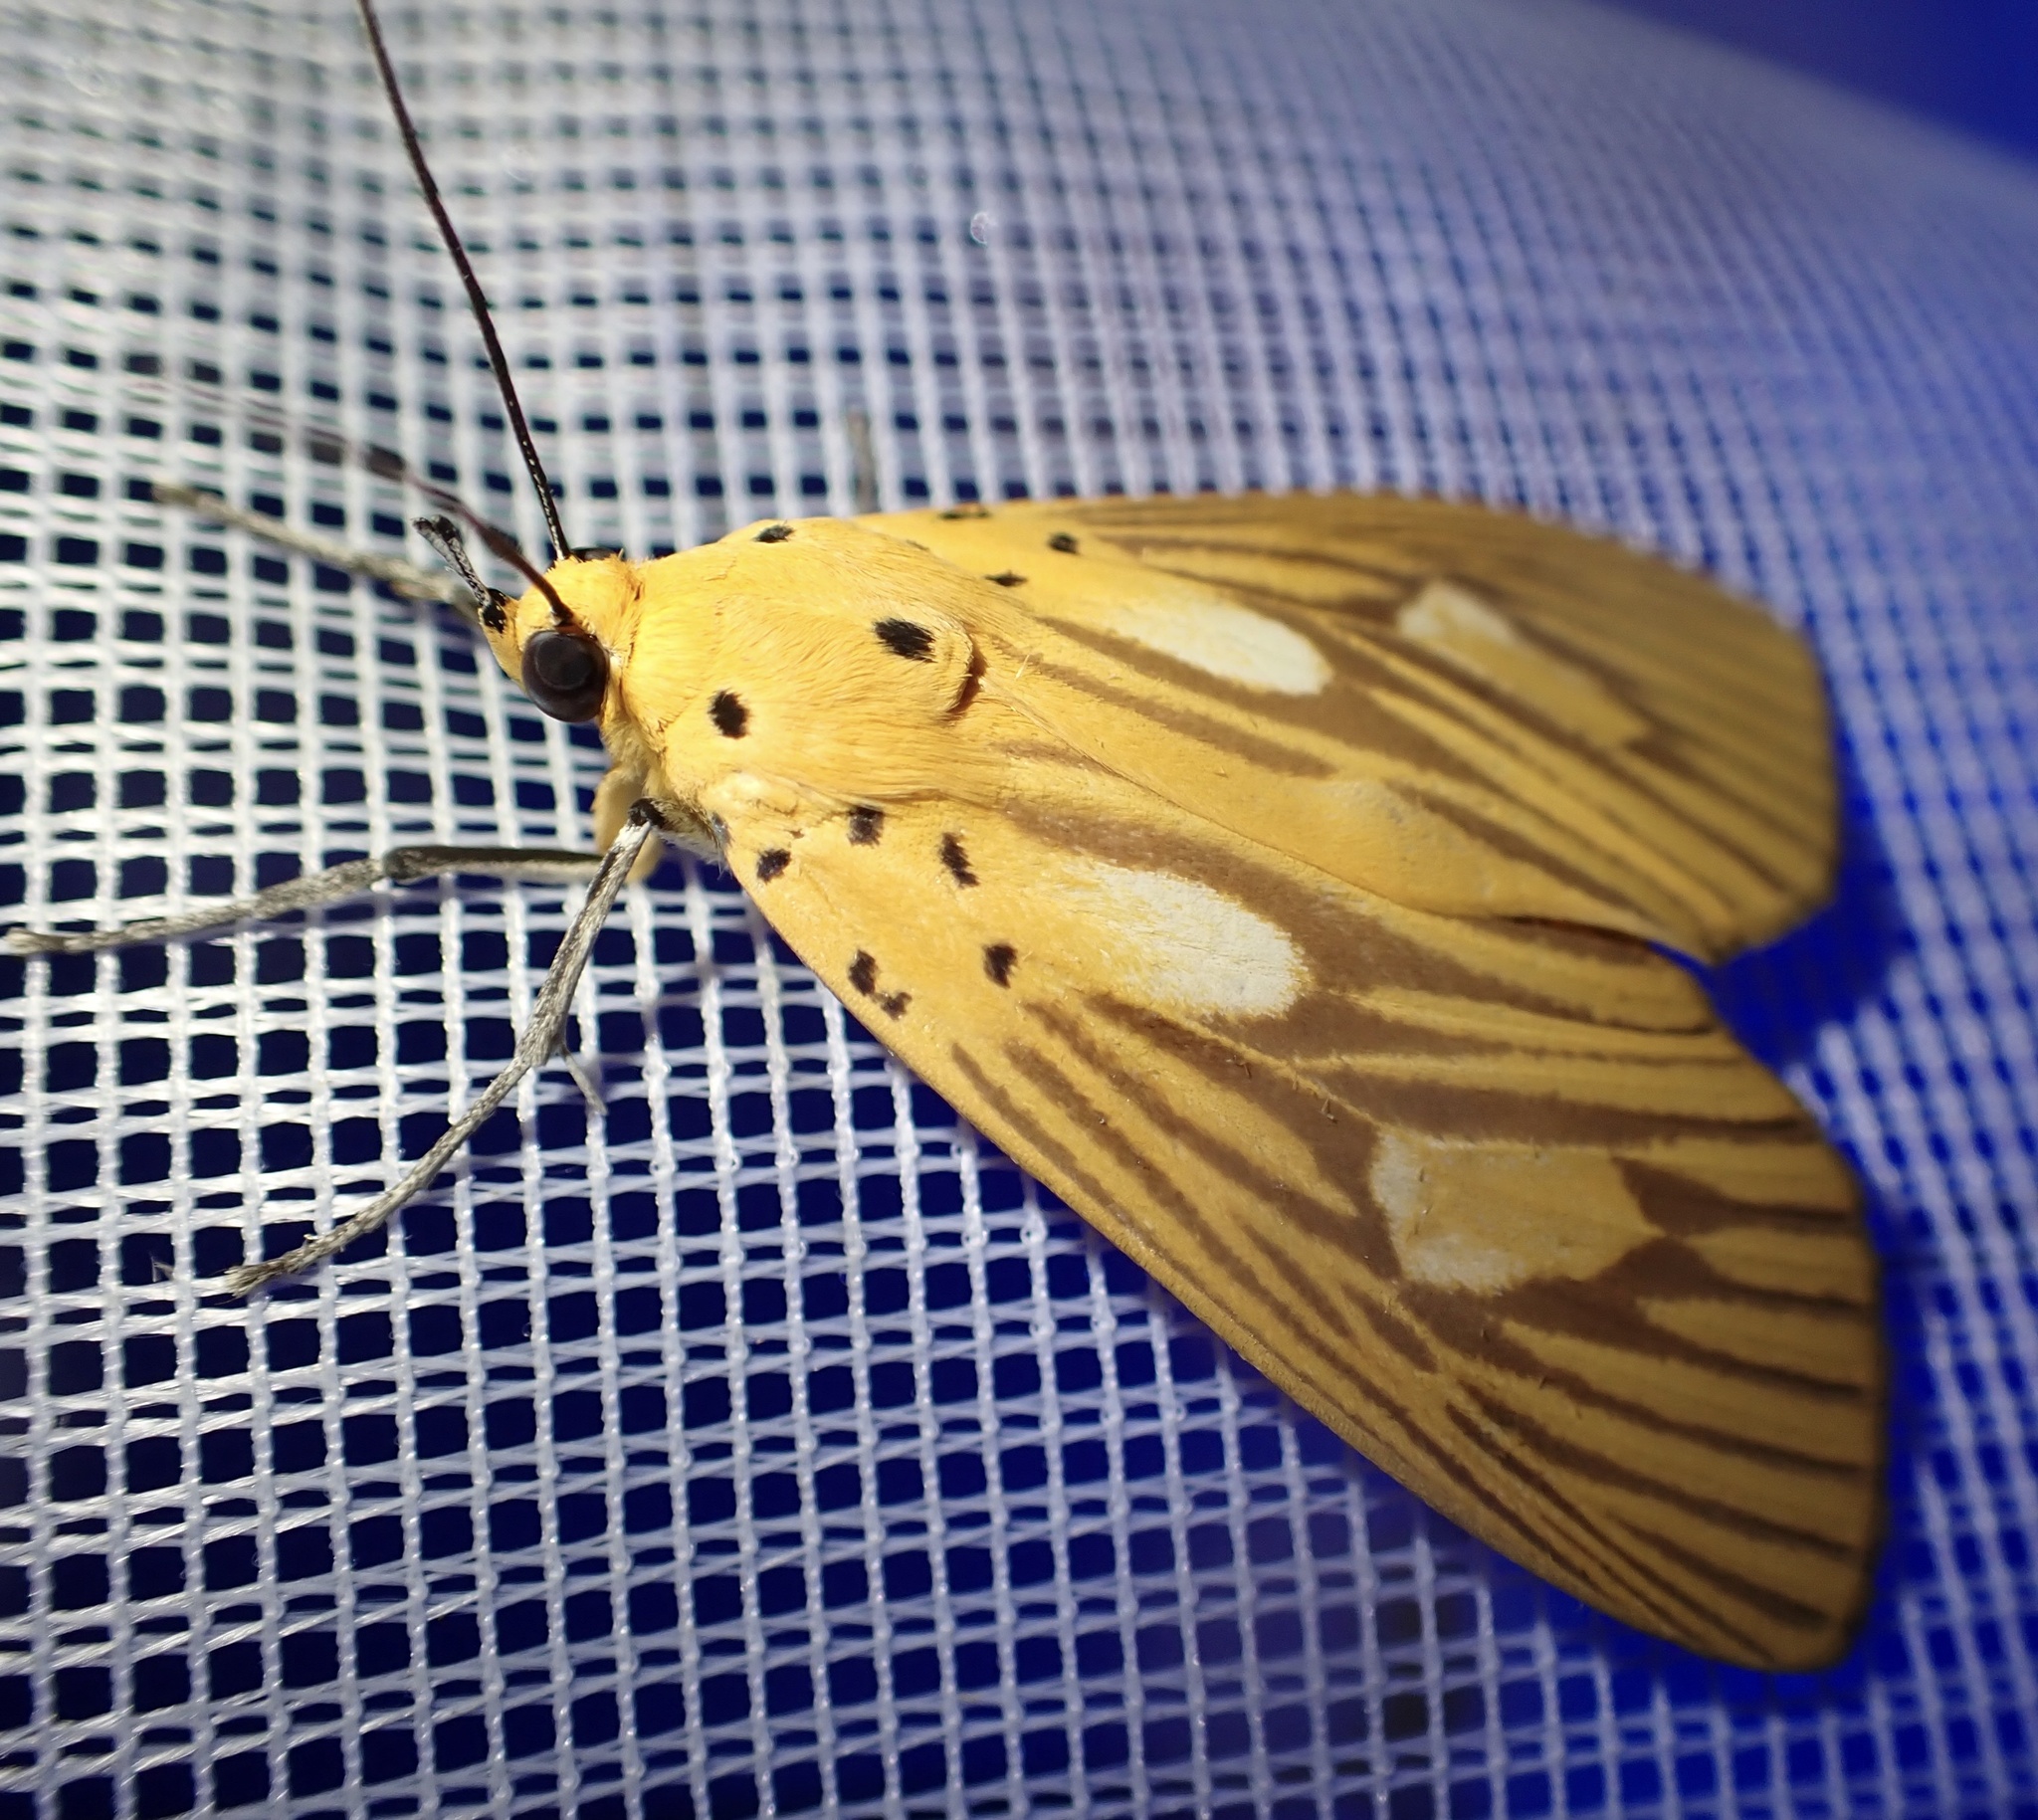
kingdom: Animalia
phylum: Arthropoda
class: Insecta
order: Lepidoptera
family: Erebidae
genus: Asota
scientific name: Asota orbona
